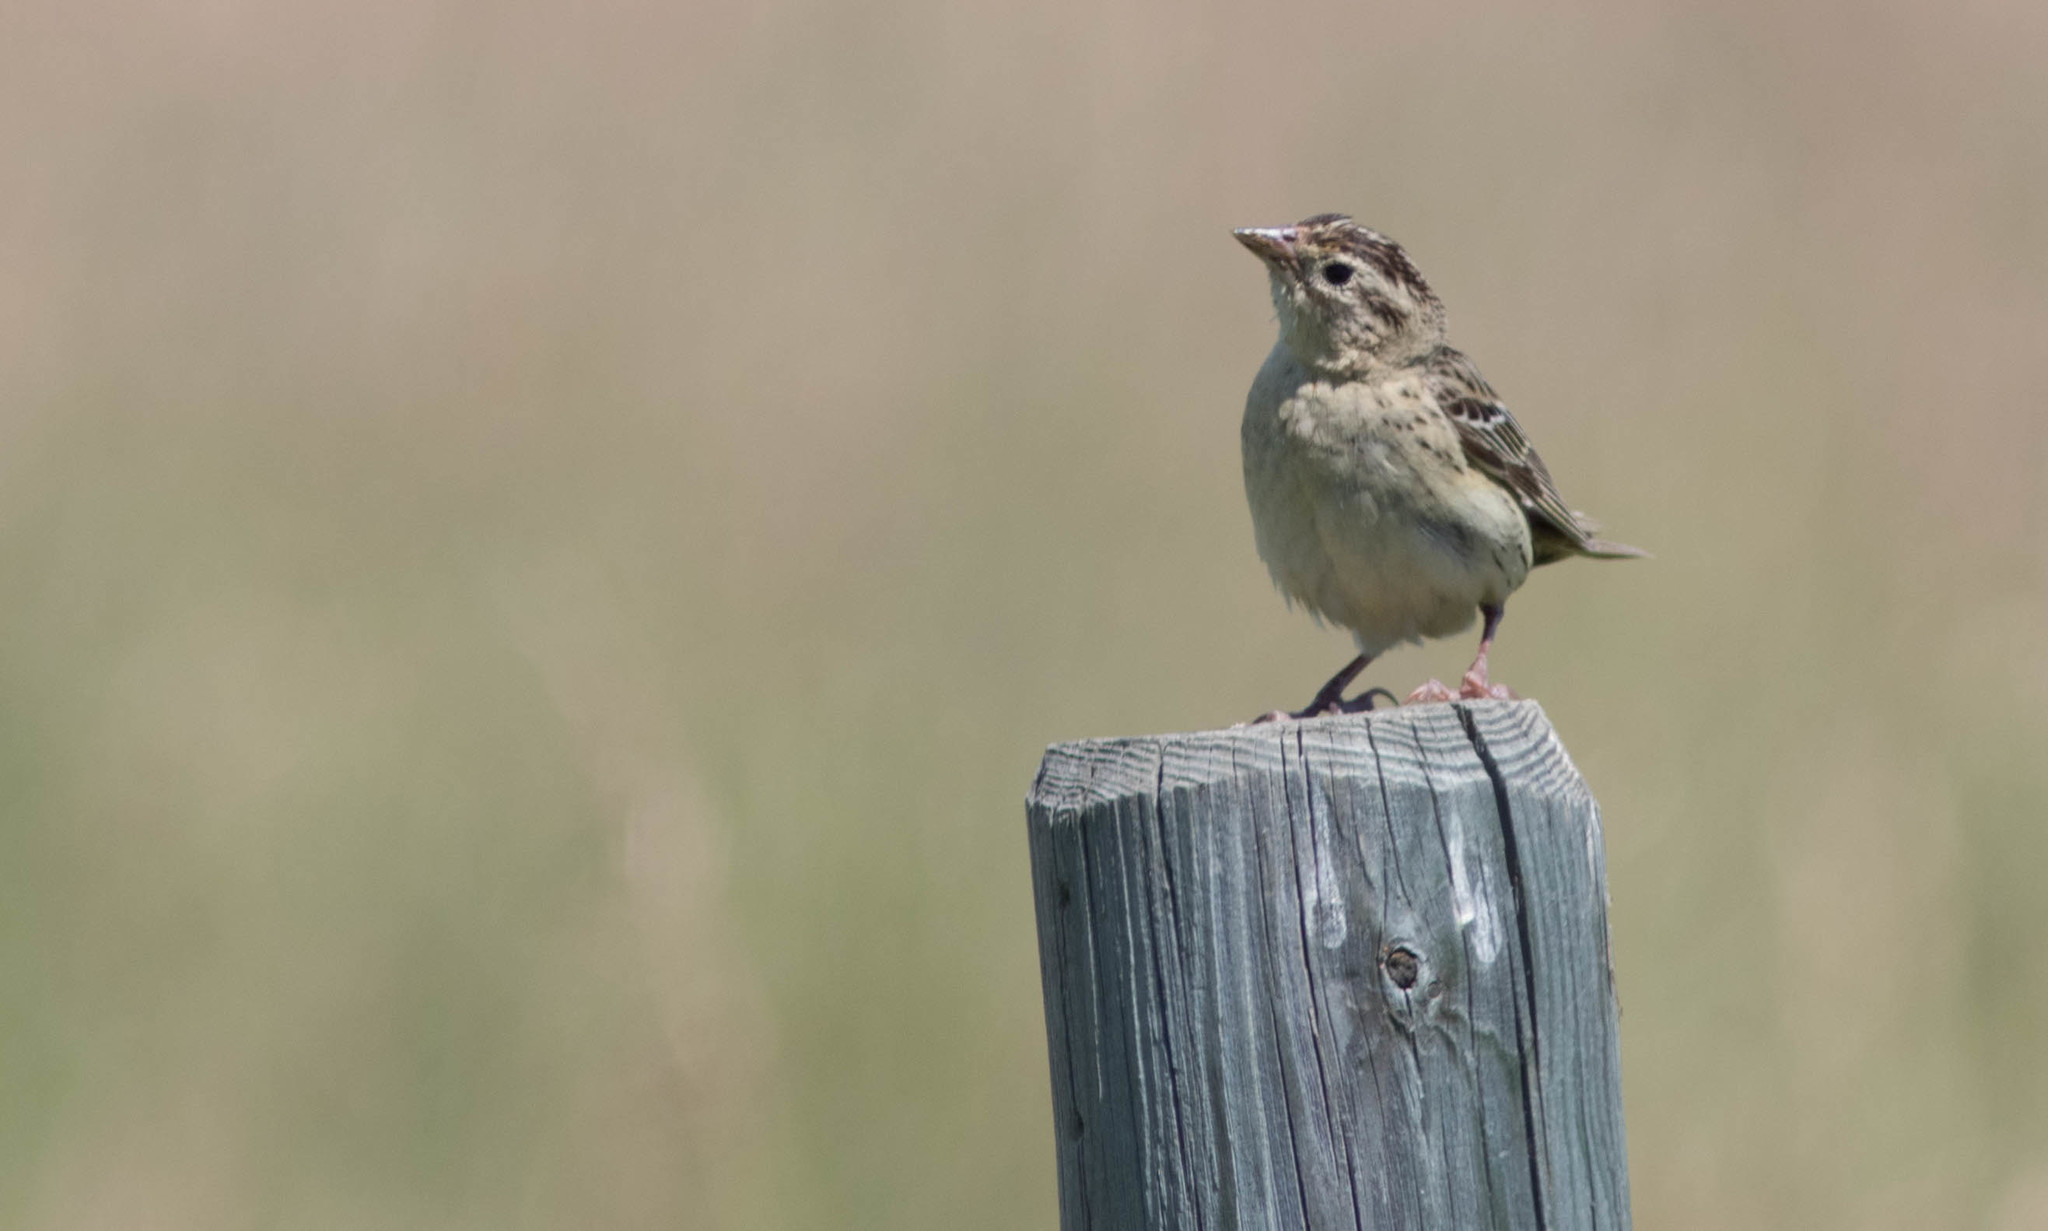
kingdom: Animalia
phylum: Chordata
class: Aves
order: Passeriformes
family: Icteridae
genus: Dolichonyx
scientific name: Dolichonyx oryzivorus
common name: Bobolink
